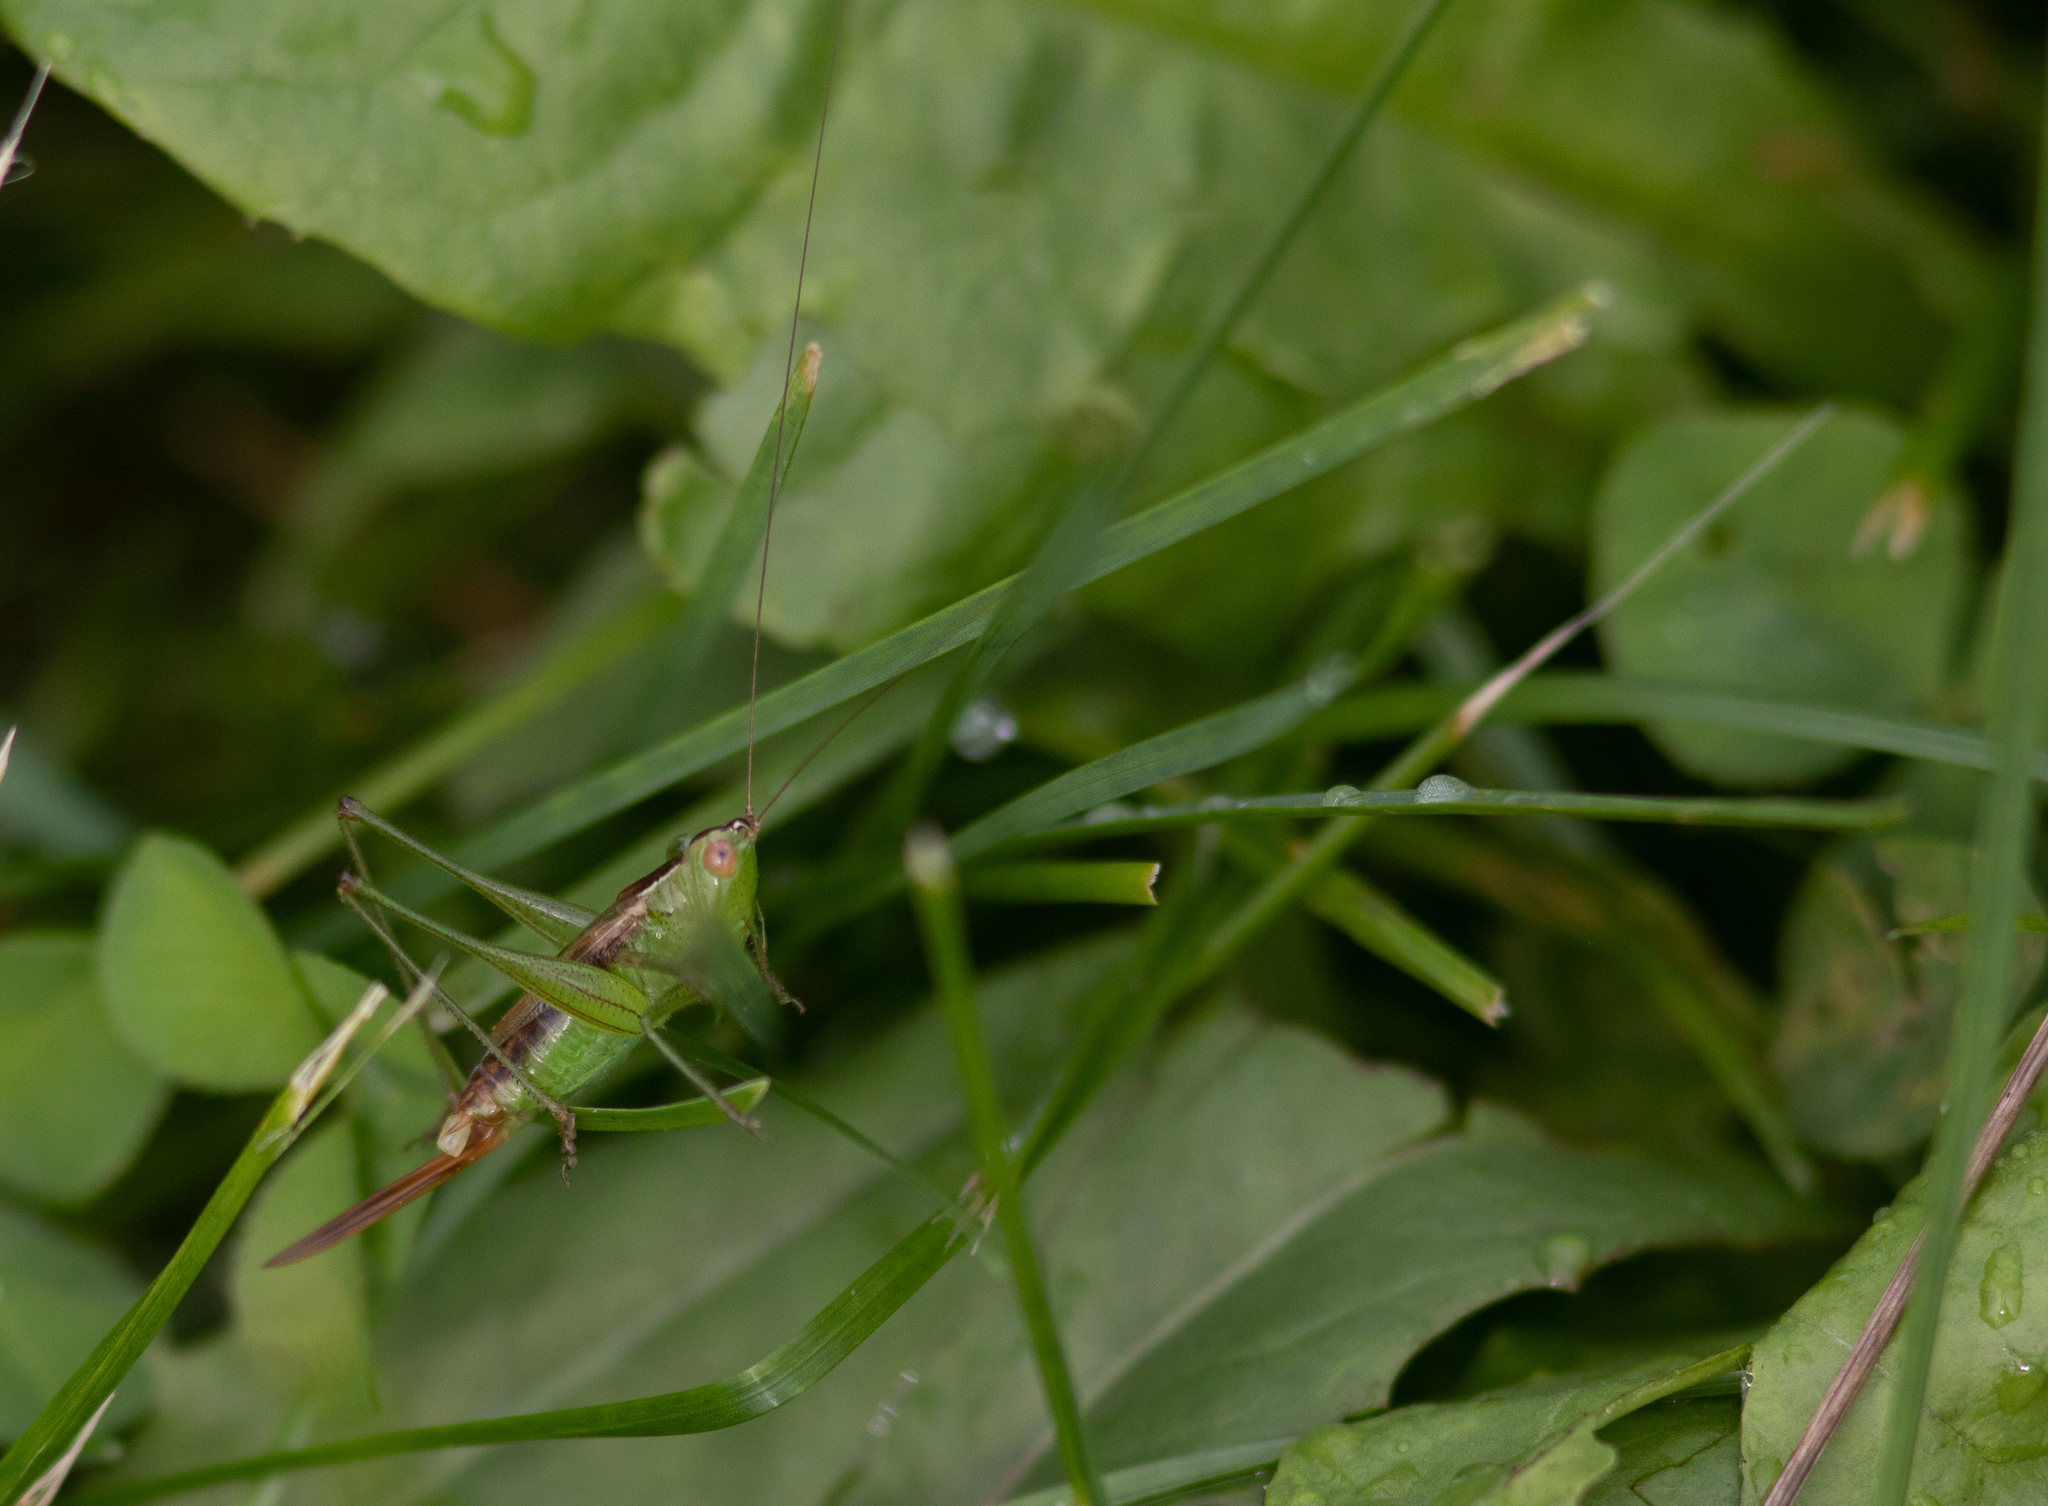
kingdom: Animalia
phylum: Arthropoda
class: Insecta
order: Orthoptera
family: Tettigoniidae
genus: Conocephalus
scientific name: Conocephalus brevipennis
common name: Short-winged meadow katydid
